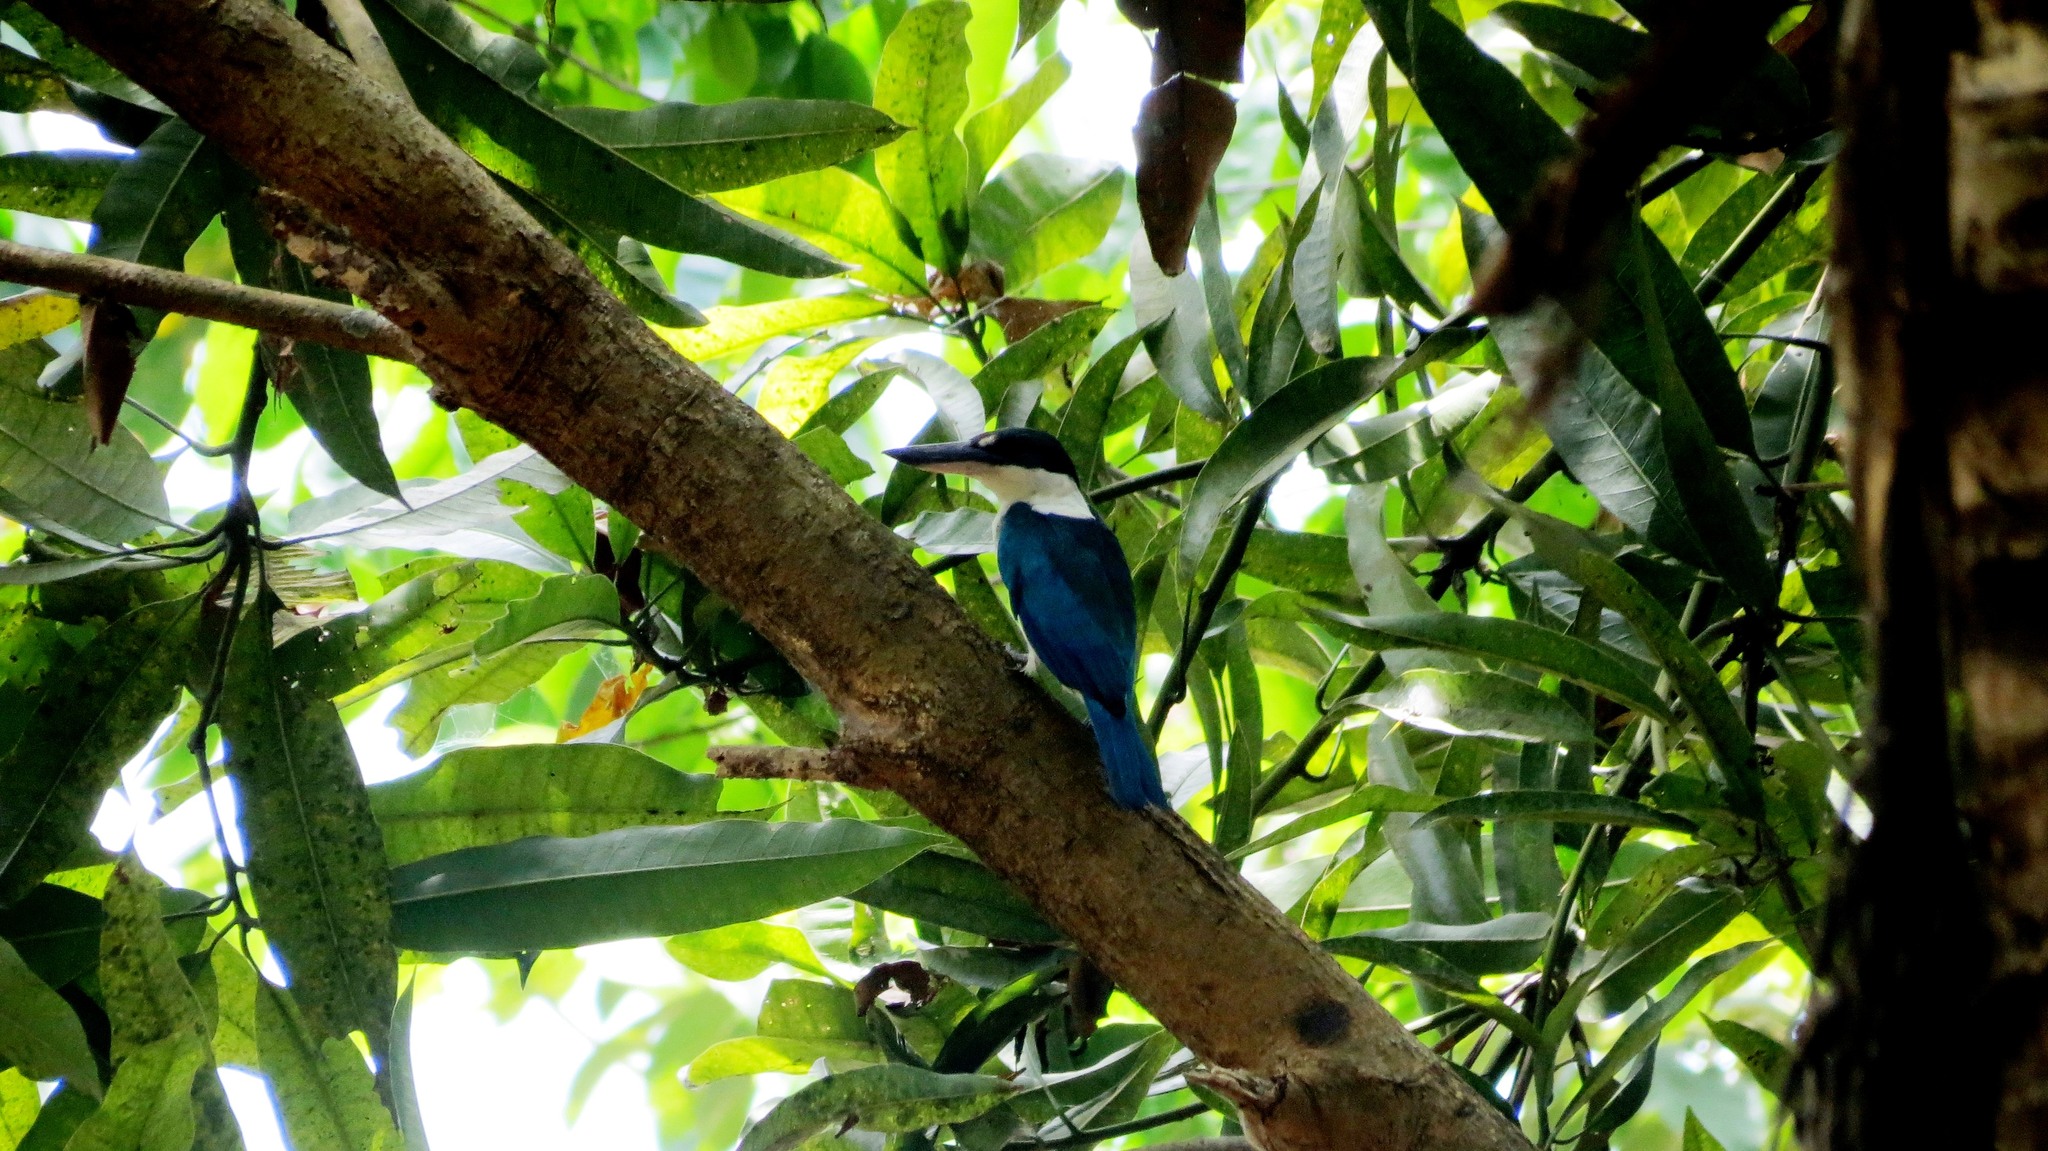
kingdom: Animalia
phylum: Chordata
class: Aves
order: Coraciiformes
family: Alcedinidae
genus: Todiramphus
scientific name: Todiramphus chloris
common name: Collared kingfisher
